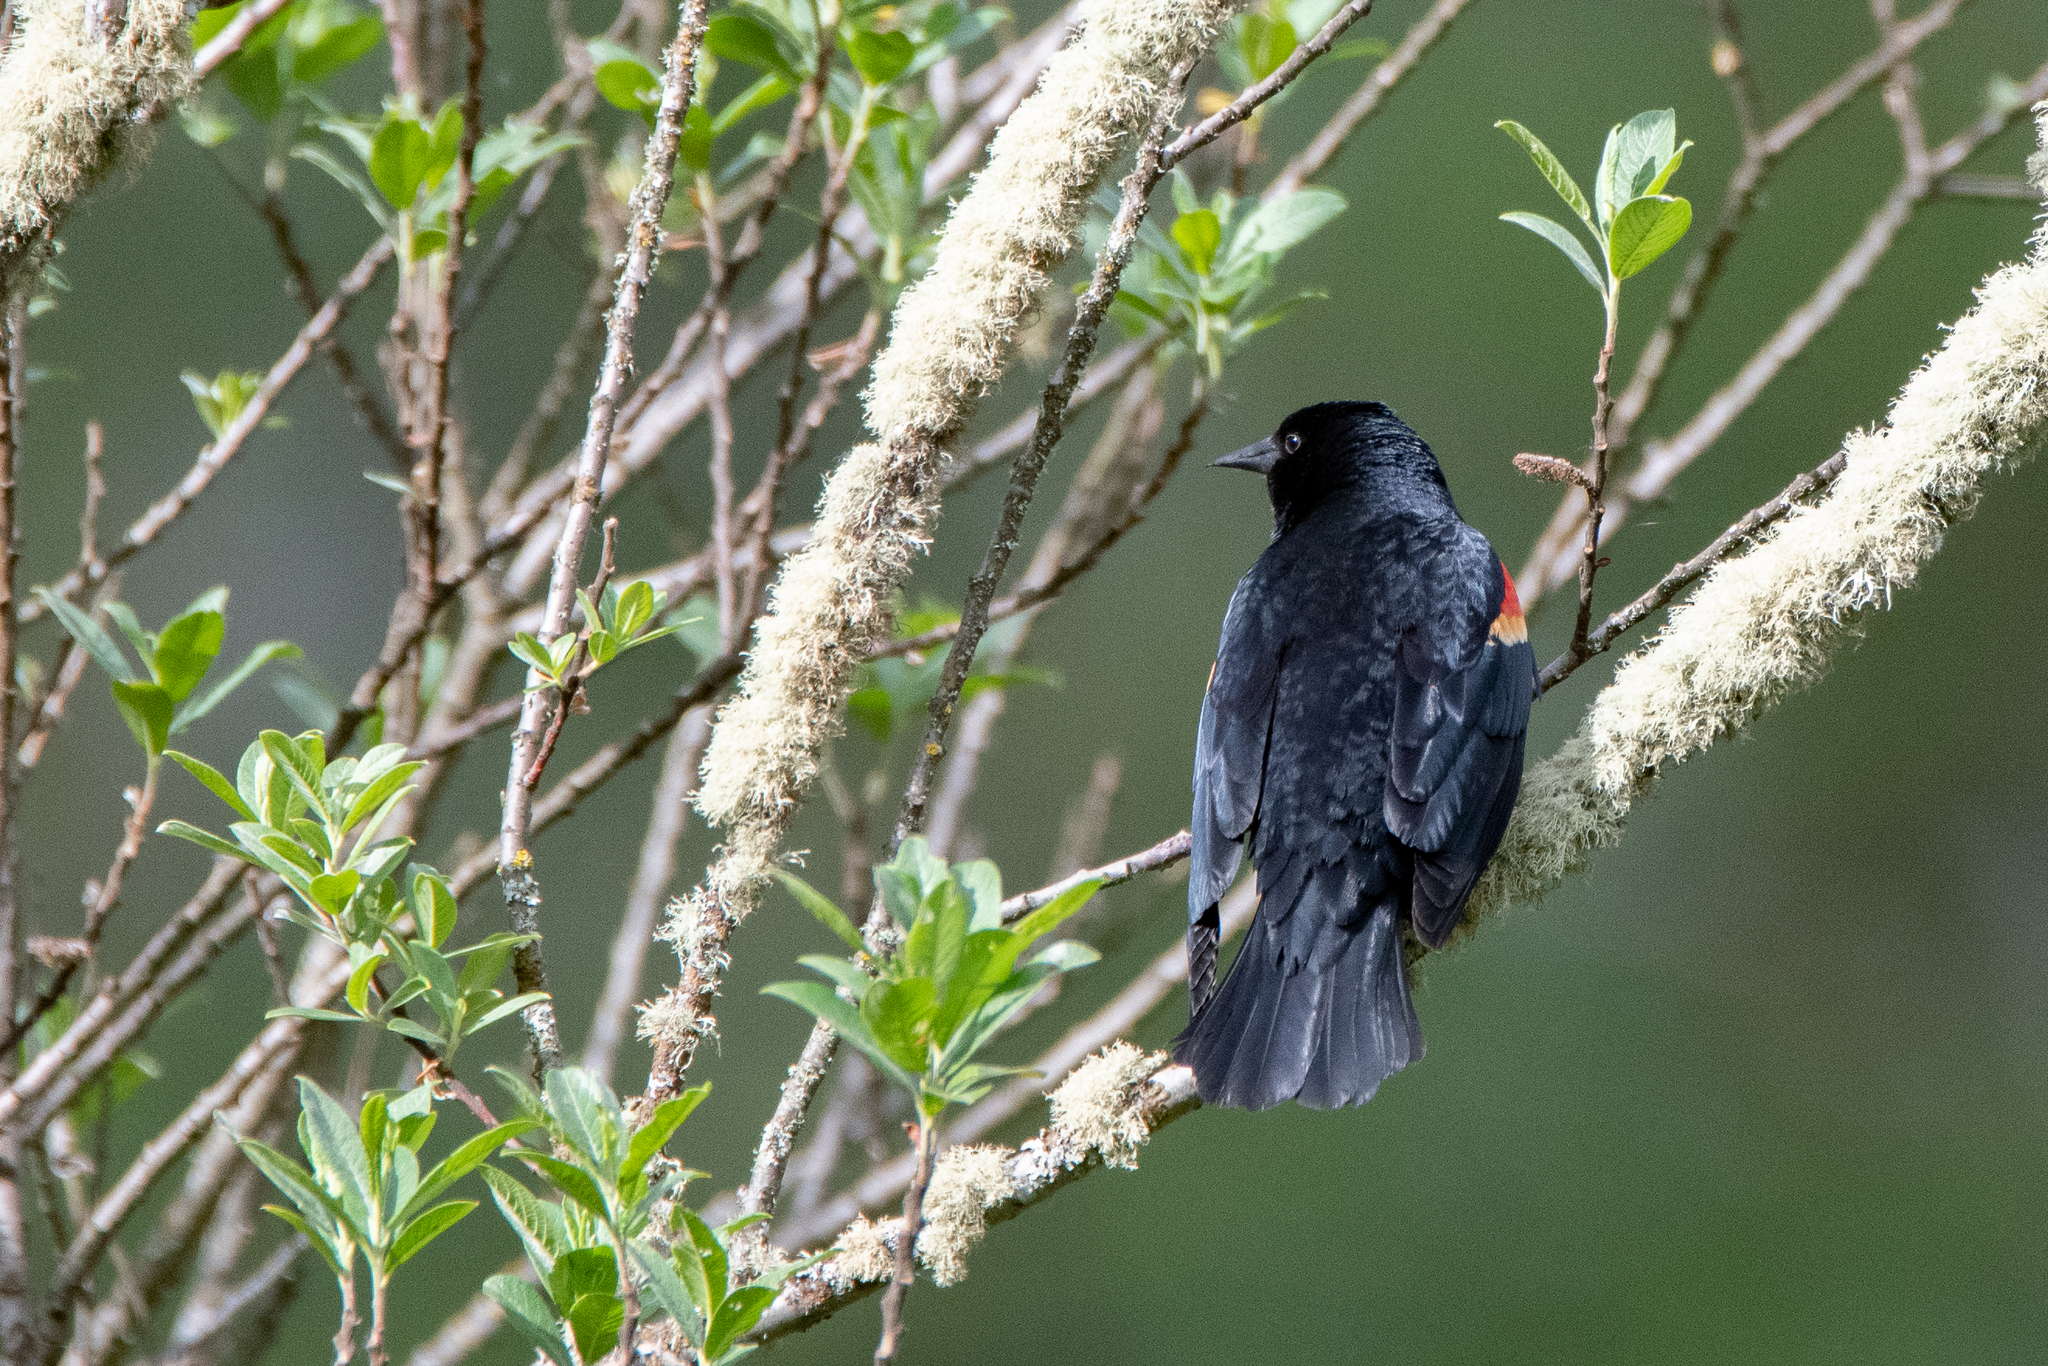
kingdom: Animalia
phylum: Chordata
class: Aves
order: Passeriformes
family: Icteridae
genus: Agelaius
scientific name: Agelaius phoeniceus
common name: Red-winged blackbird
